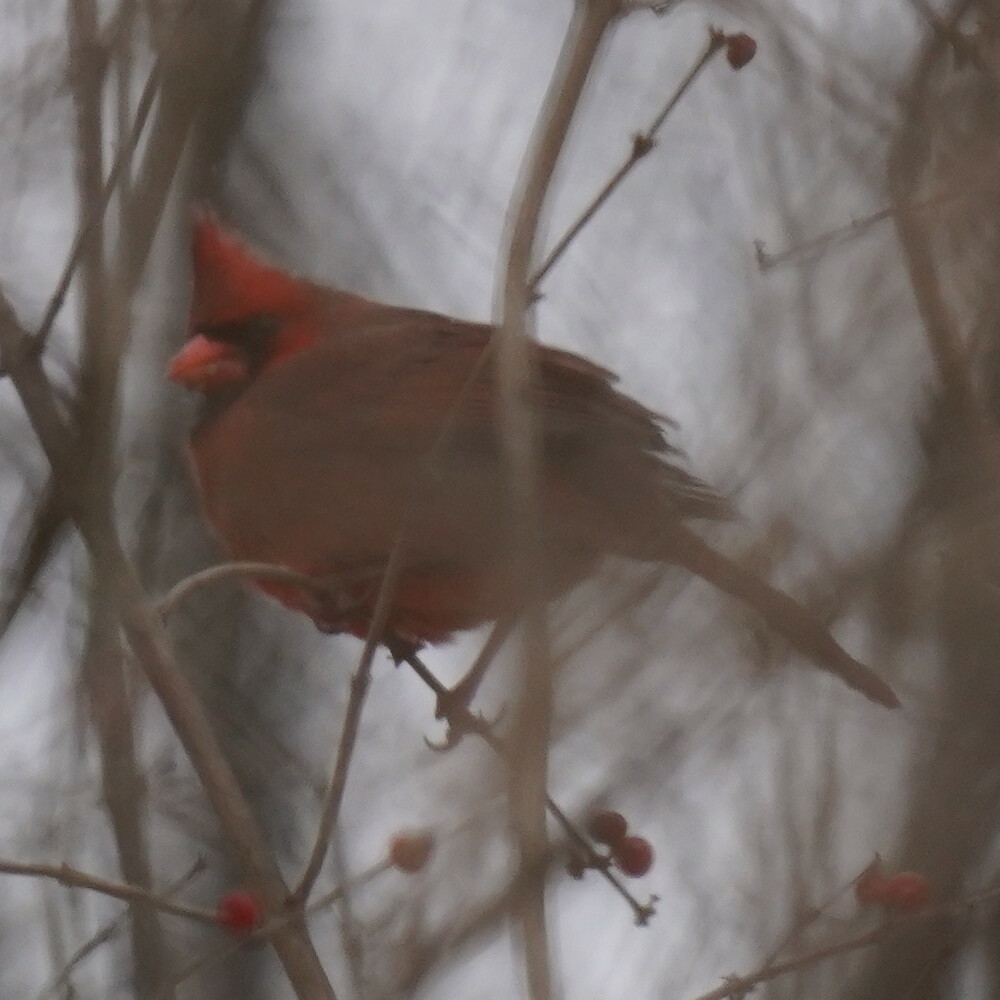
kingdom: Animalia
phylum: Chordata
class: Aves
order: Passeriformes
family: Cardinalidae
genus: Cardinalis
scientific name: Cardinalis cardinalis
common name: Northern cardinal
